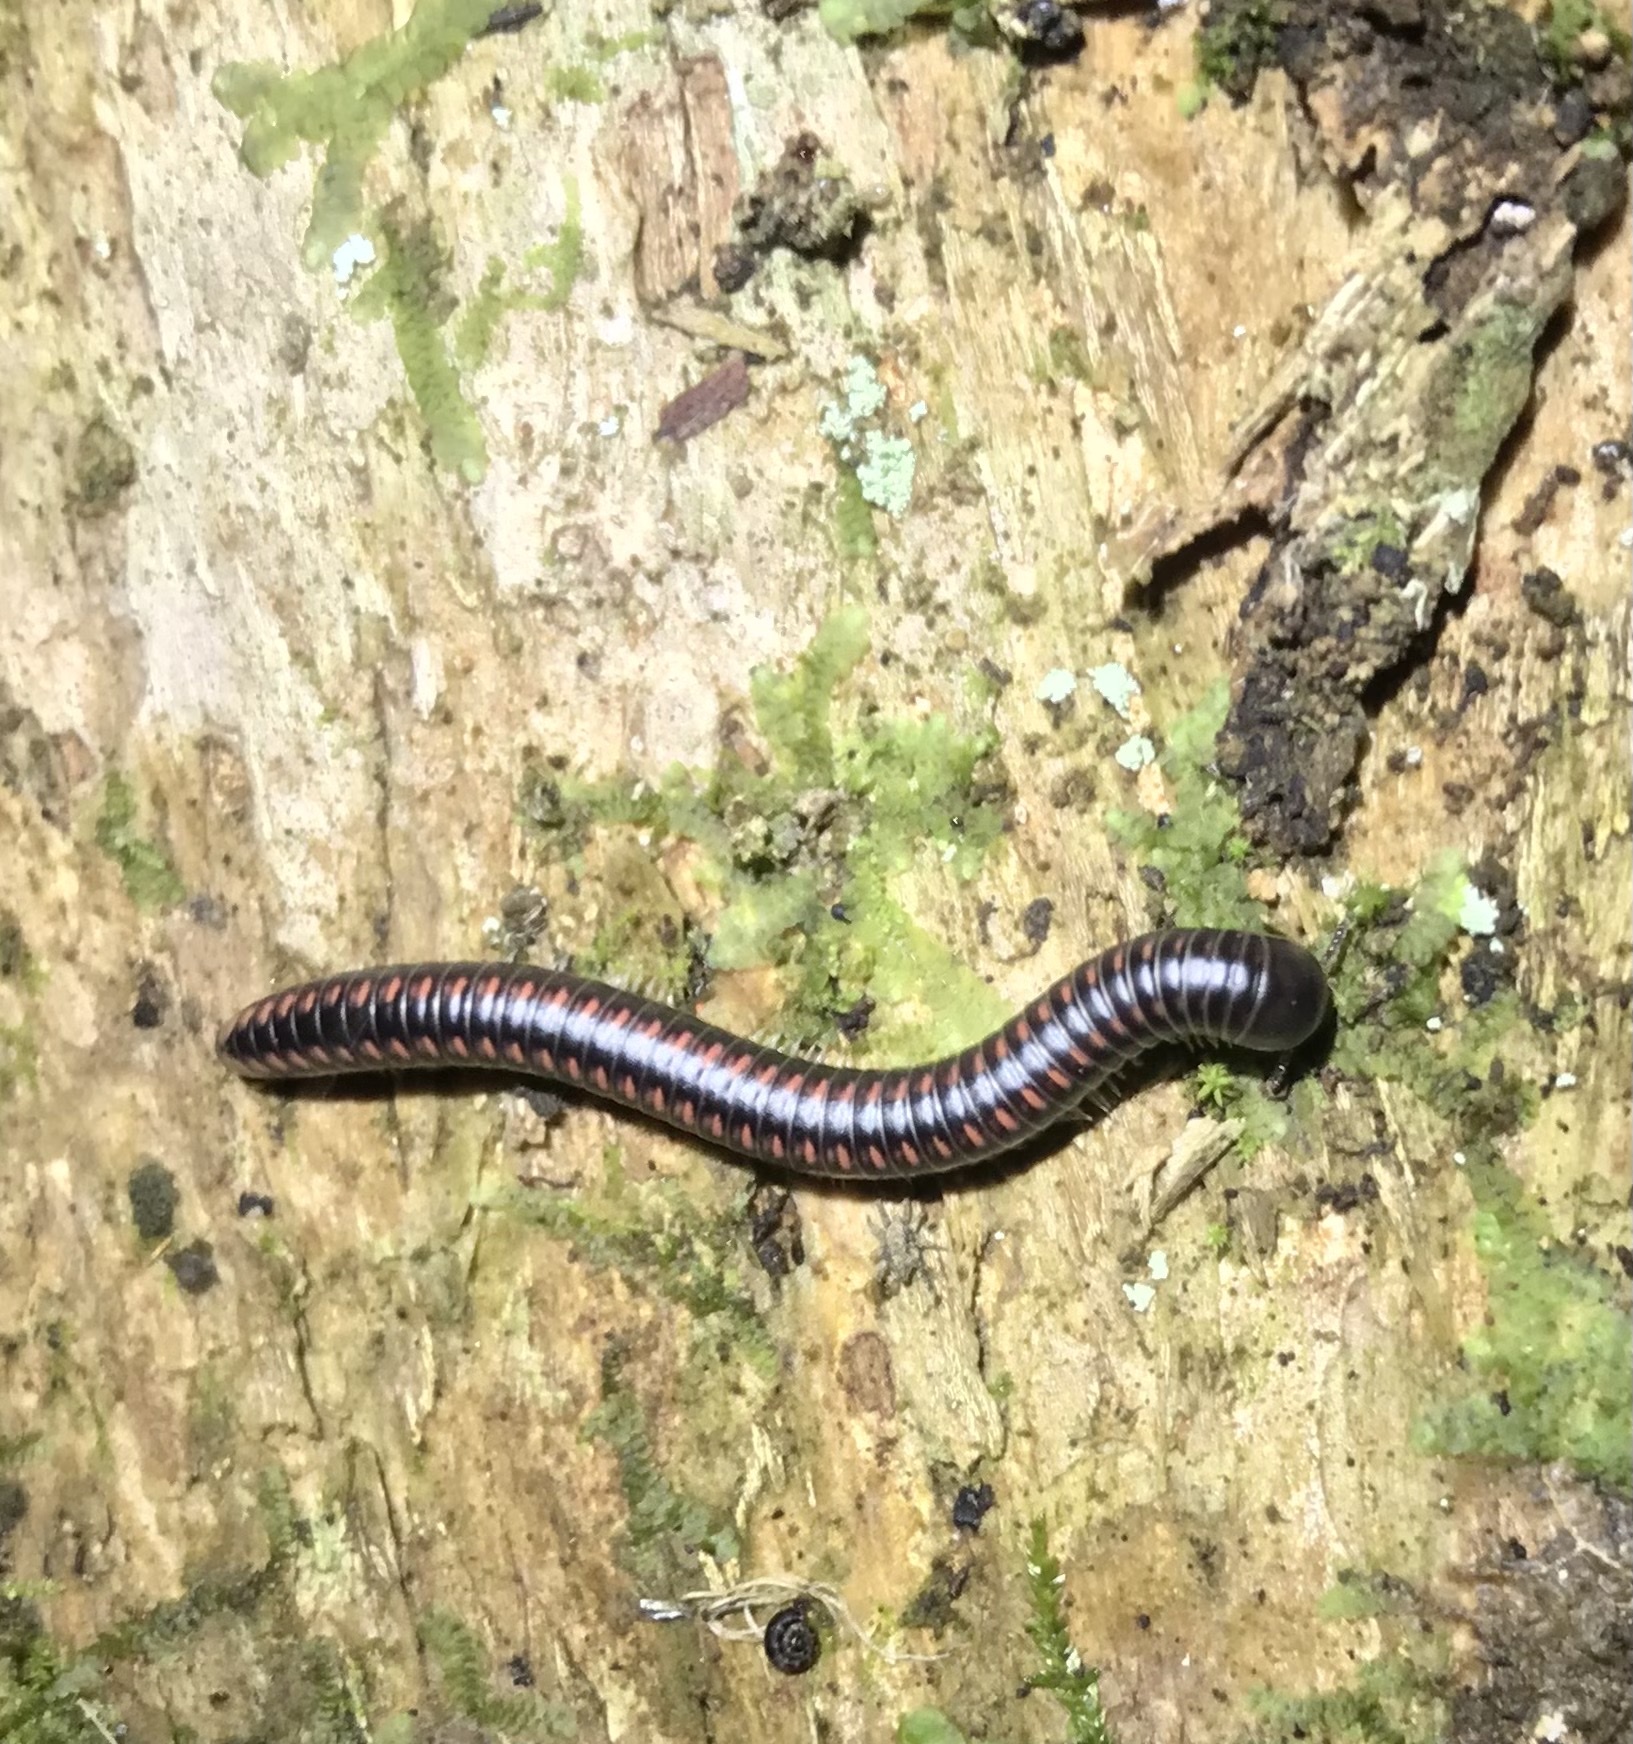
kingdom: Animalia
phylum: Arthropoda
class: Diplopoda
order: Spirobolida
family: Spirobolellidae
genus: Spirobolellus
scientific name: Spirobolellus antipodarum
